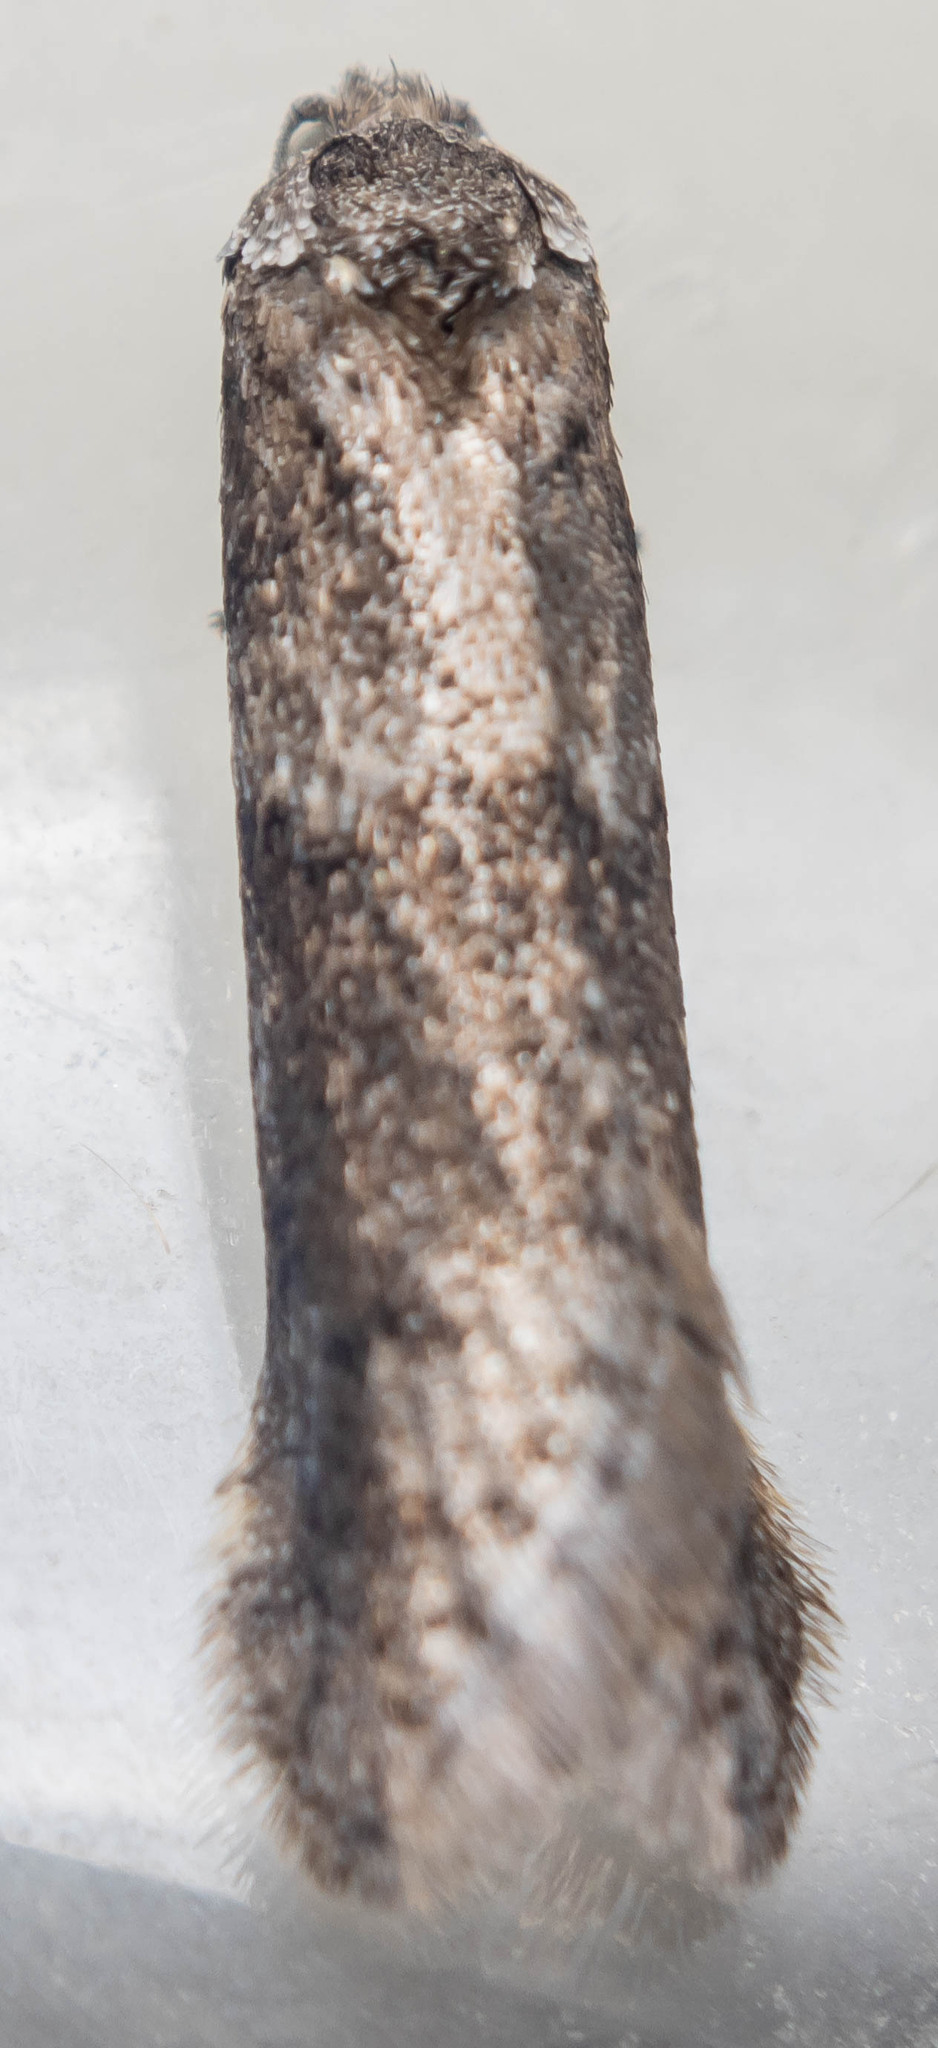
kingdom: Animalia
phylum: Arthropoda
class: Insecta
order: Lepidoptera
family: Tortricidae
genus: Tortricodes
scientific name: Tortricodes alternella
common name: Winter shade
